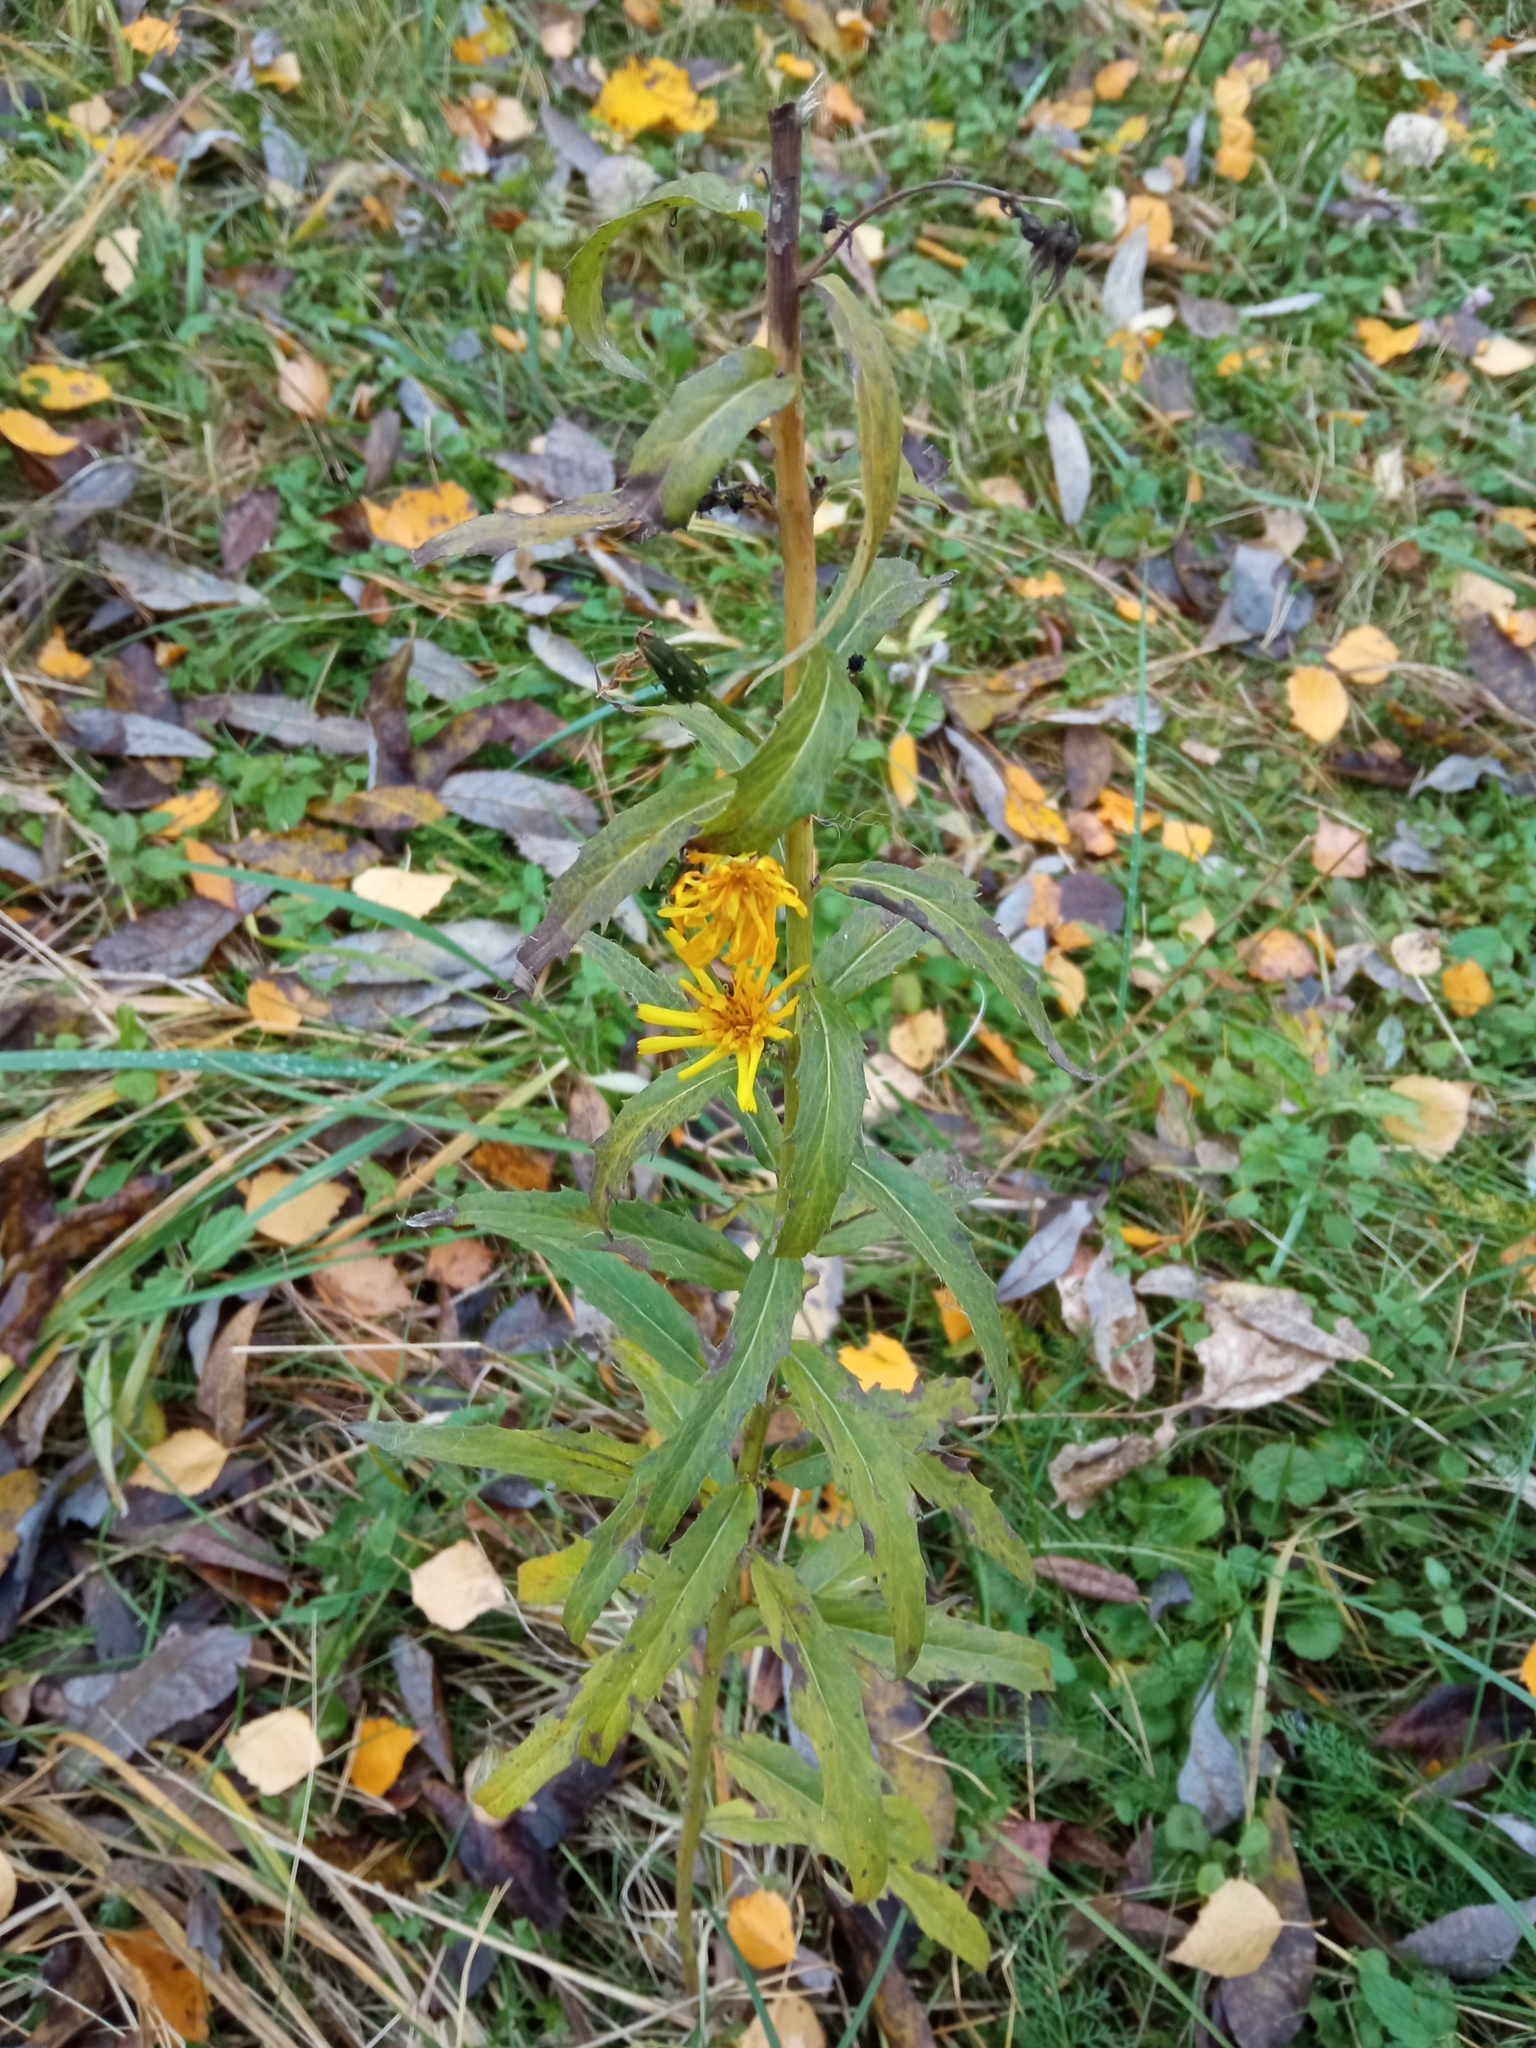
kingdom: Plantae
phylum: Tracheophyta
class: Magnoliopsida
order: Asterales
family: Asteraceae
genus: Hieracium
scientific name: Hieracium umbellatum
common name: Northern hawkweed
